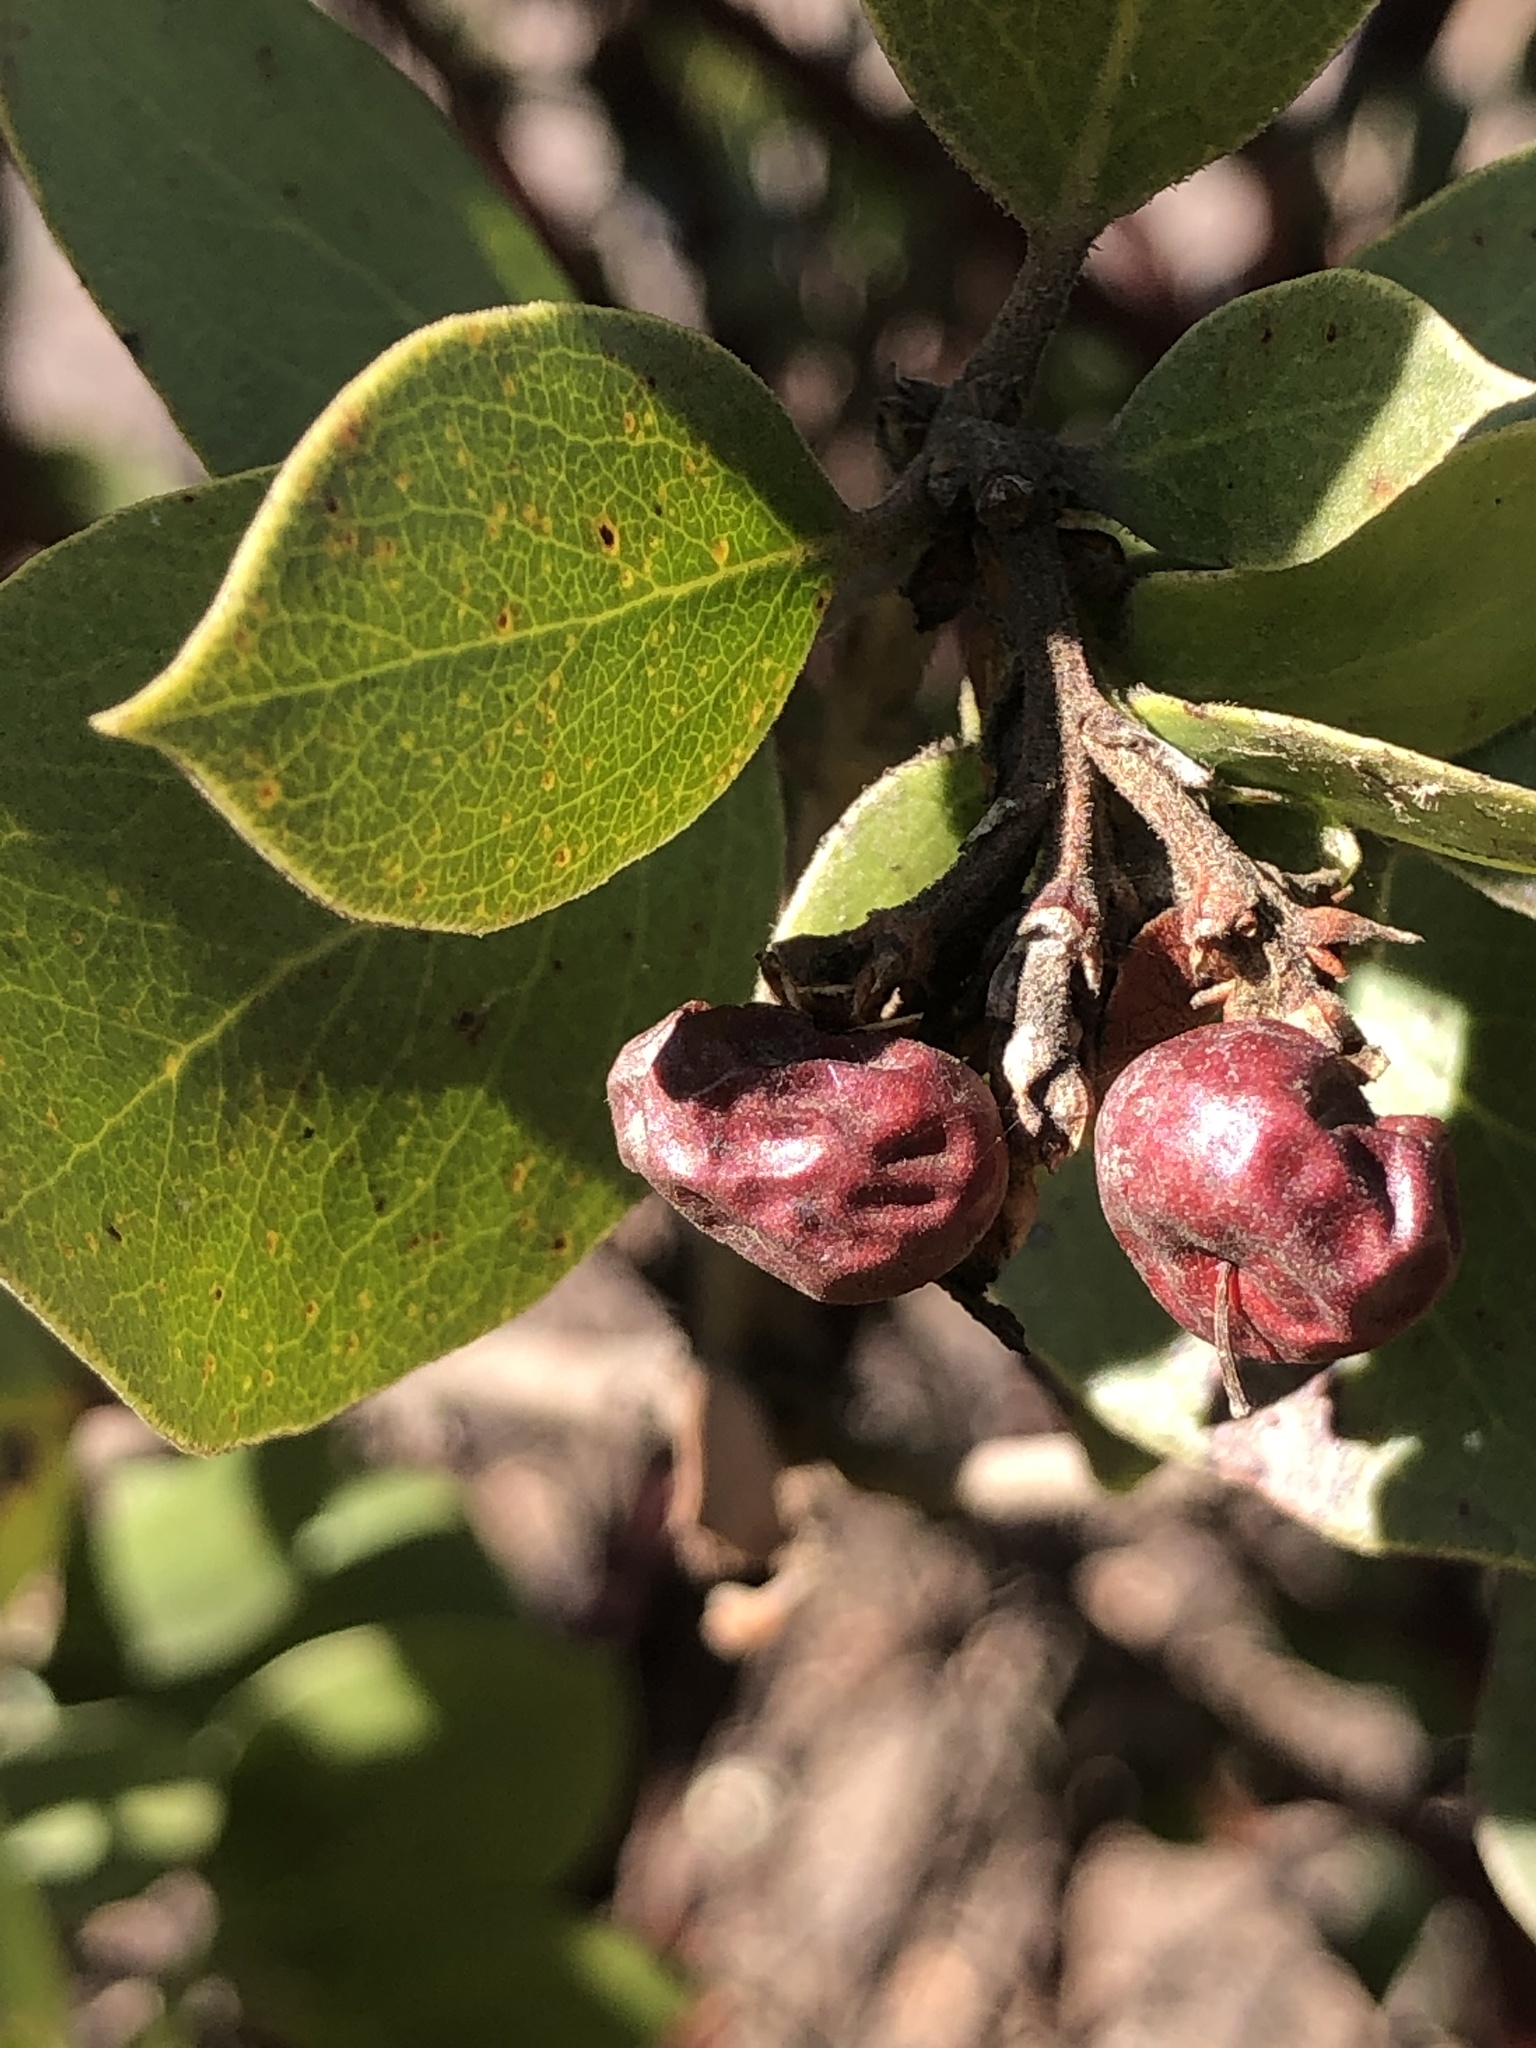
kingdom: Plantae
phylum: Tracheophyta
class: Magnoliopsida
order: Ericales
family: Ericaceae
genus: Arctostaphylos
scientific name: Arctostaphylos manzanita
